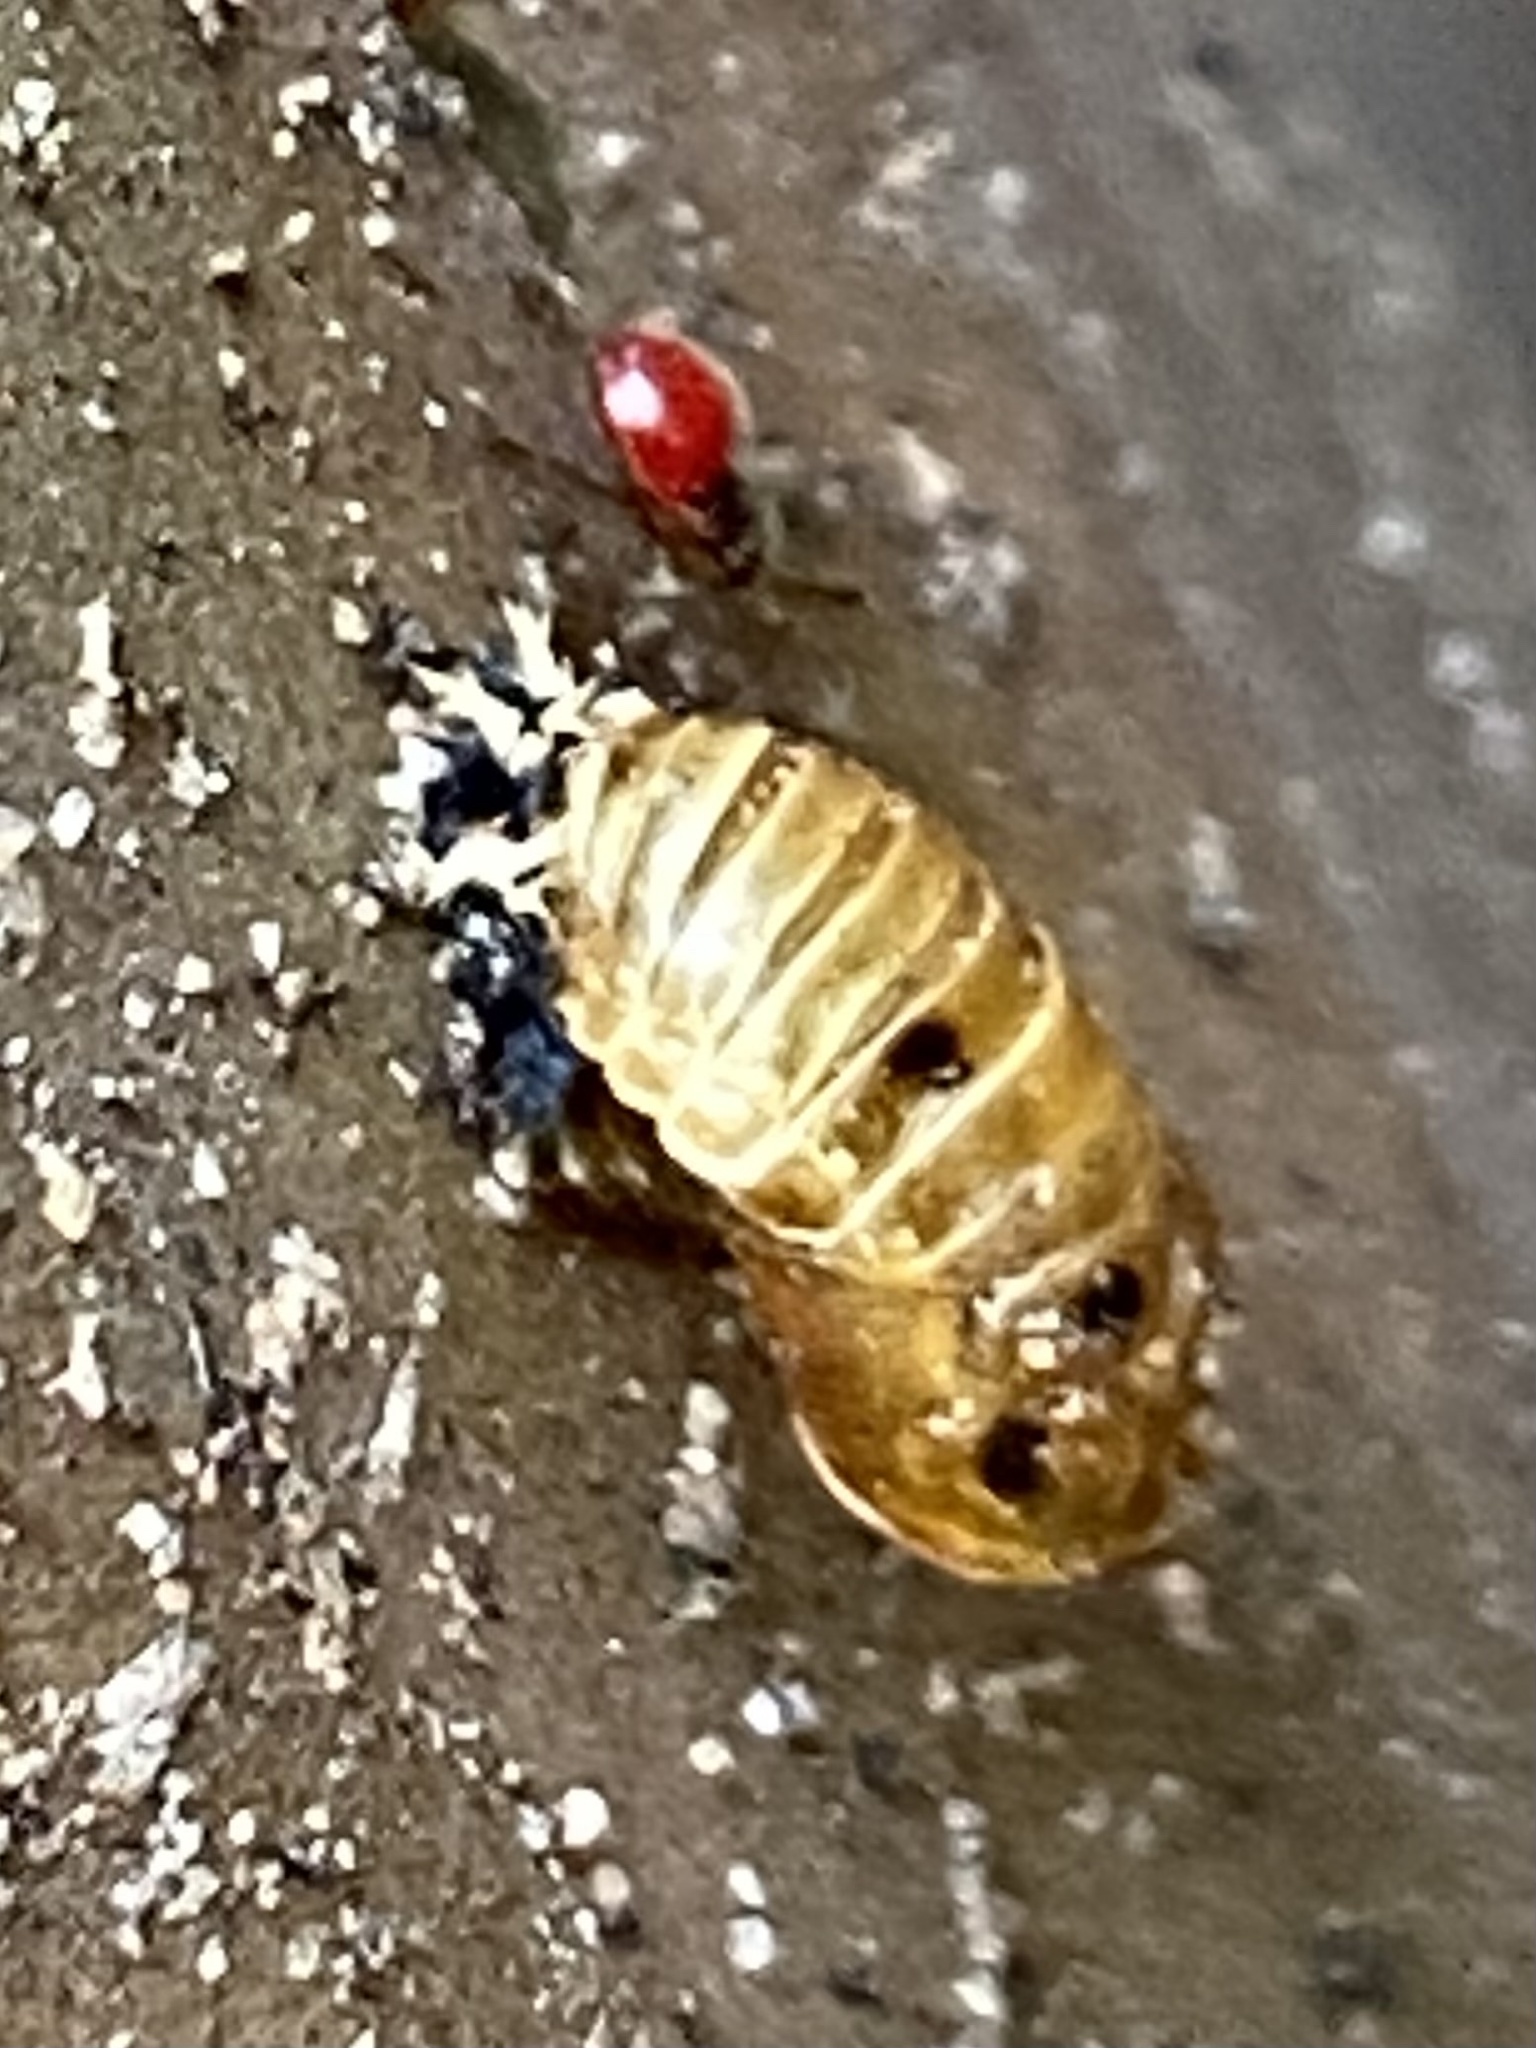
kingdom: Animalia
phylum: Arthropoda
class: Insecta
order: Coleoptera
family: Coccinellidae
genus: Harmonia
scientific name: Harmonia axyridis
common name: Harlequin ladybird
